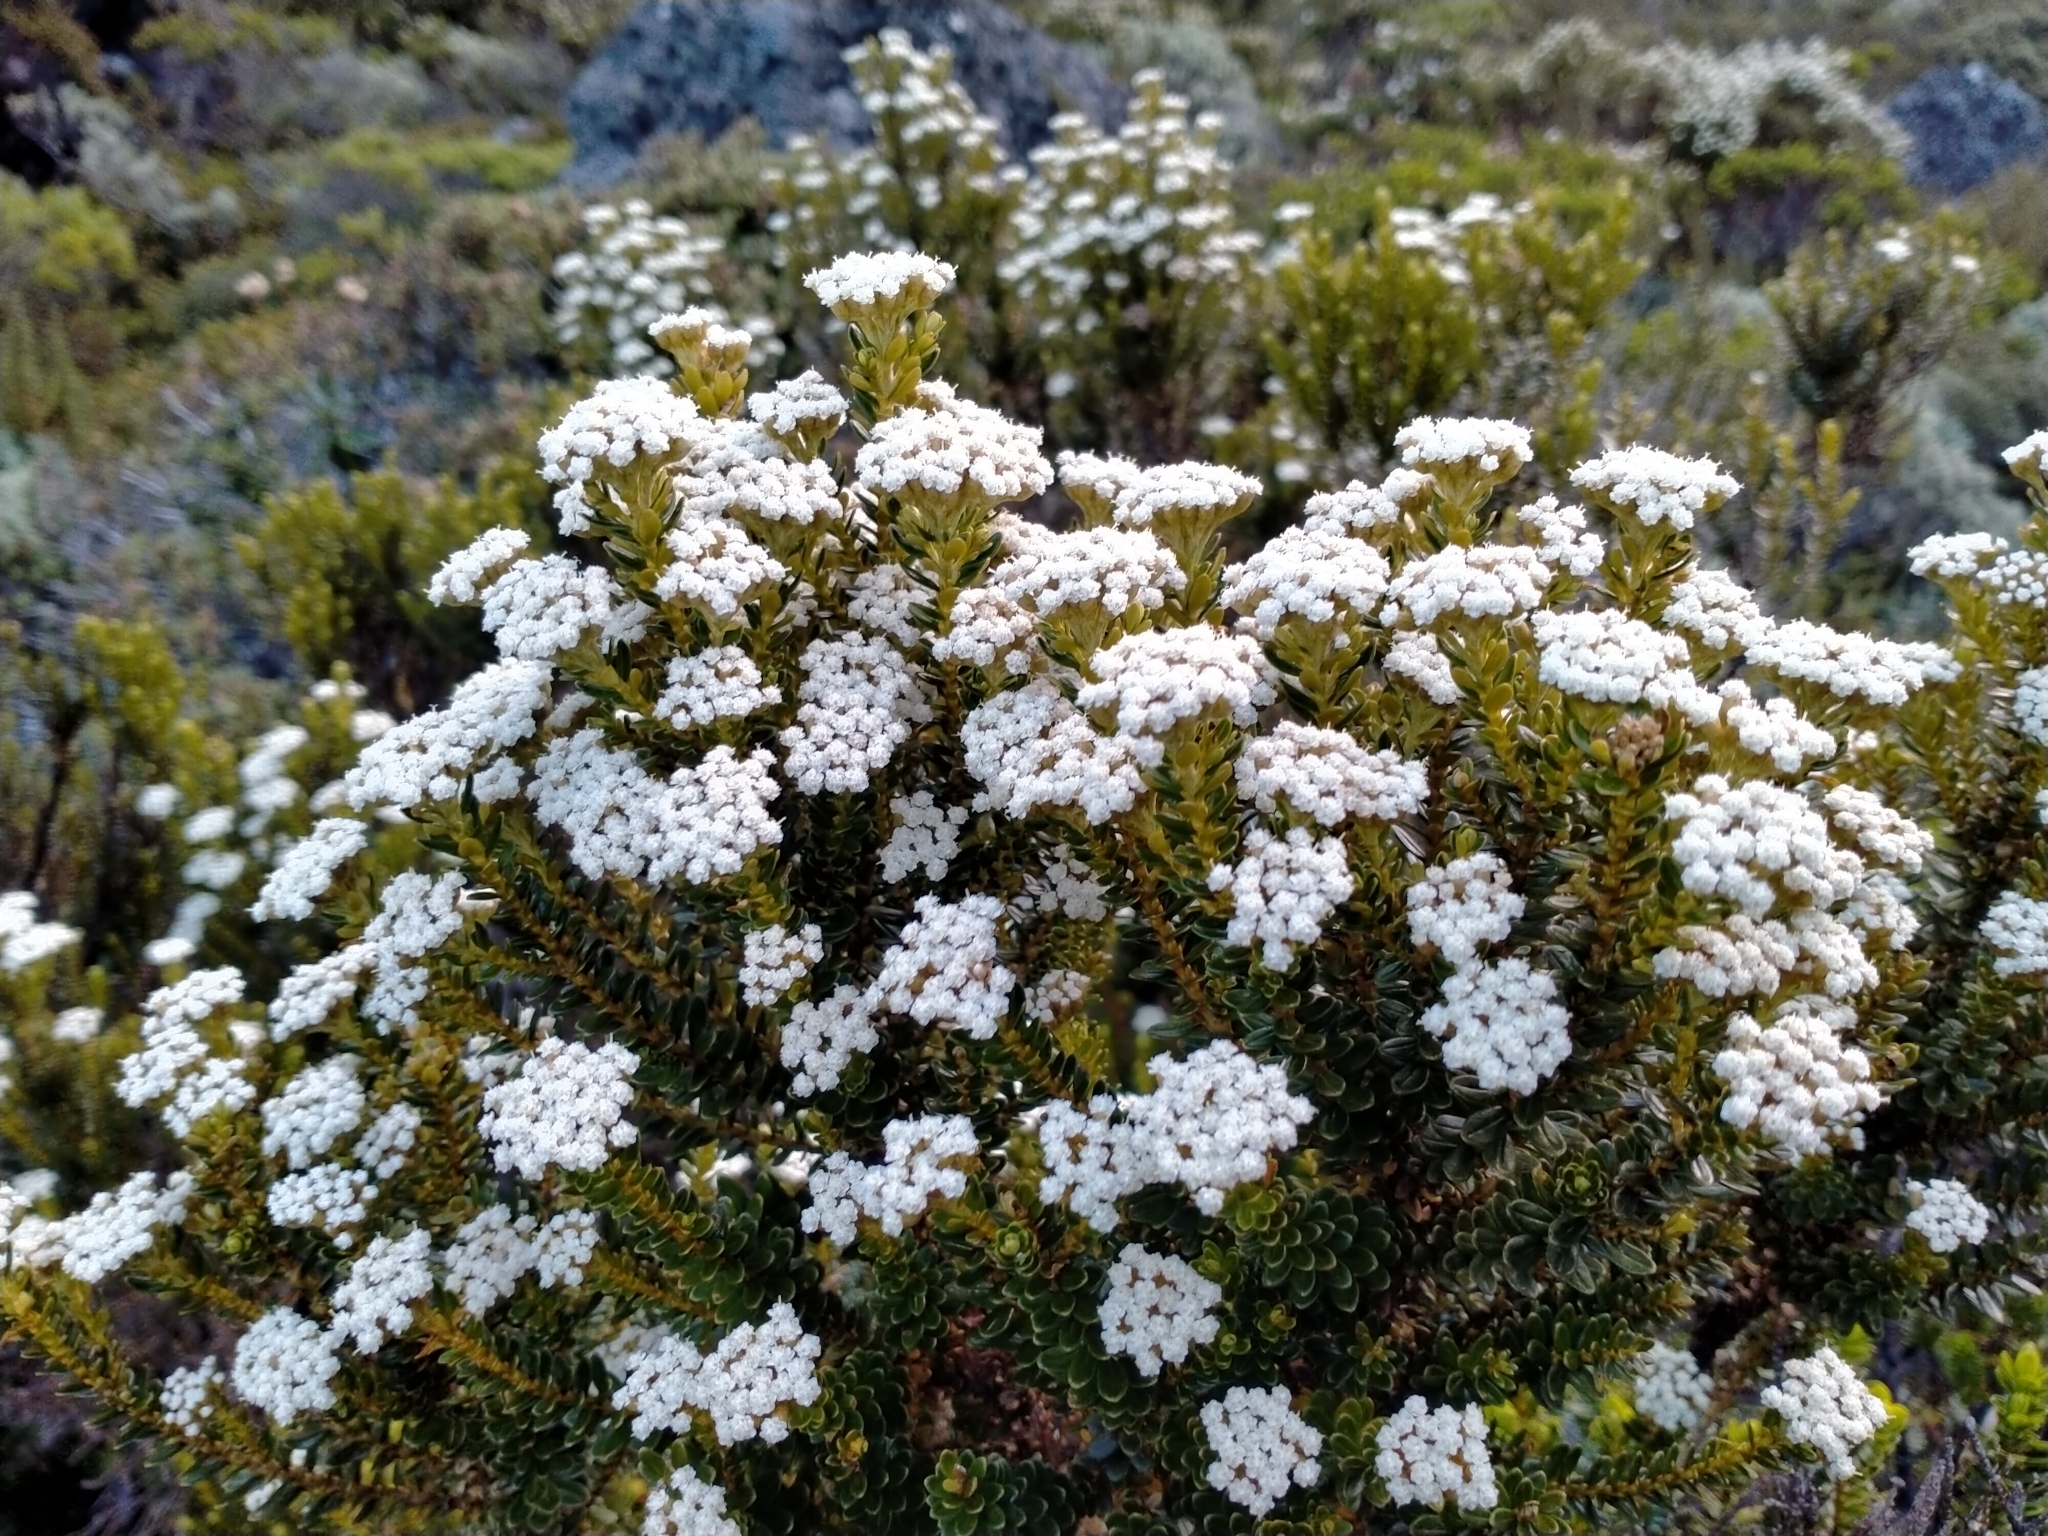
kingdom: Plantae
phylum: Tracheophyta
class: Magnoliopsida
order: Asterales
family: Asteraceae
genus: Ozothamnus
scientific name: Ozothamnus leptophyllus
